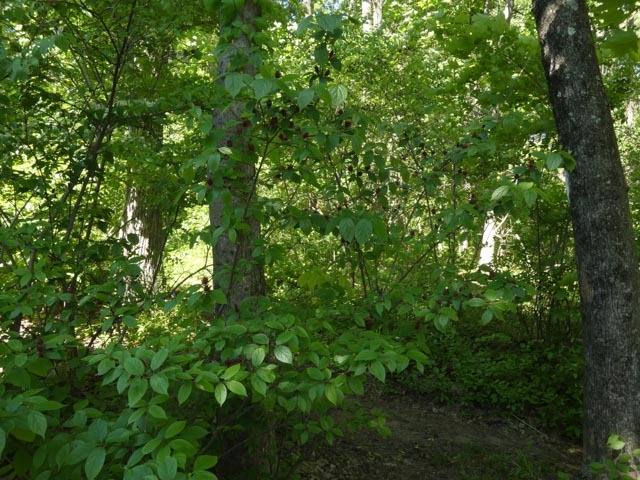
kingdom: Plantae
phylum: Tracheophyta
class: Magnoliopsida
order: Laurales
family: Calycanthaceae
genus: Calycanthus
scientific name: Calycanthus floridus
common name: Carolina-allspice
